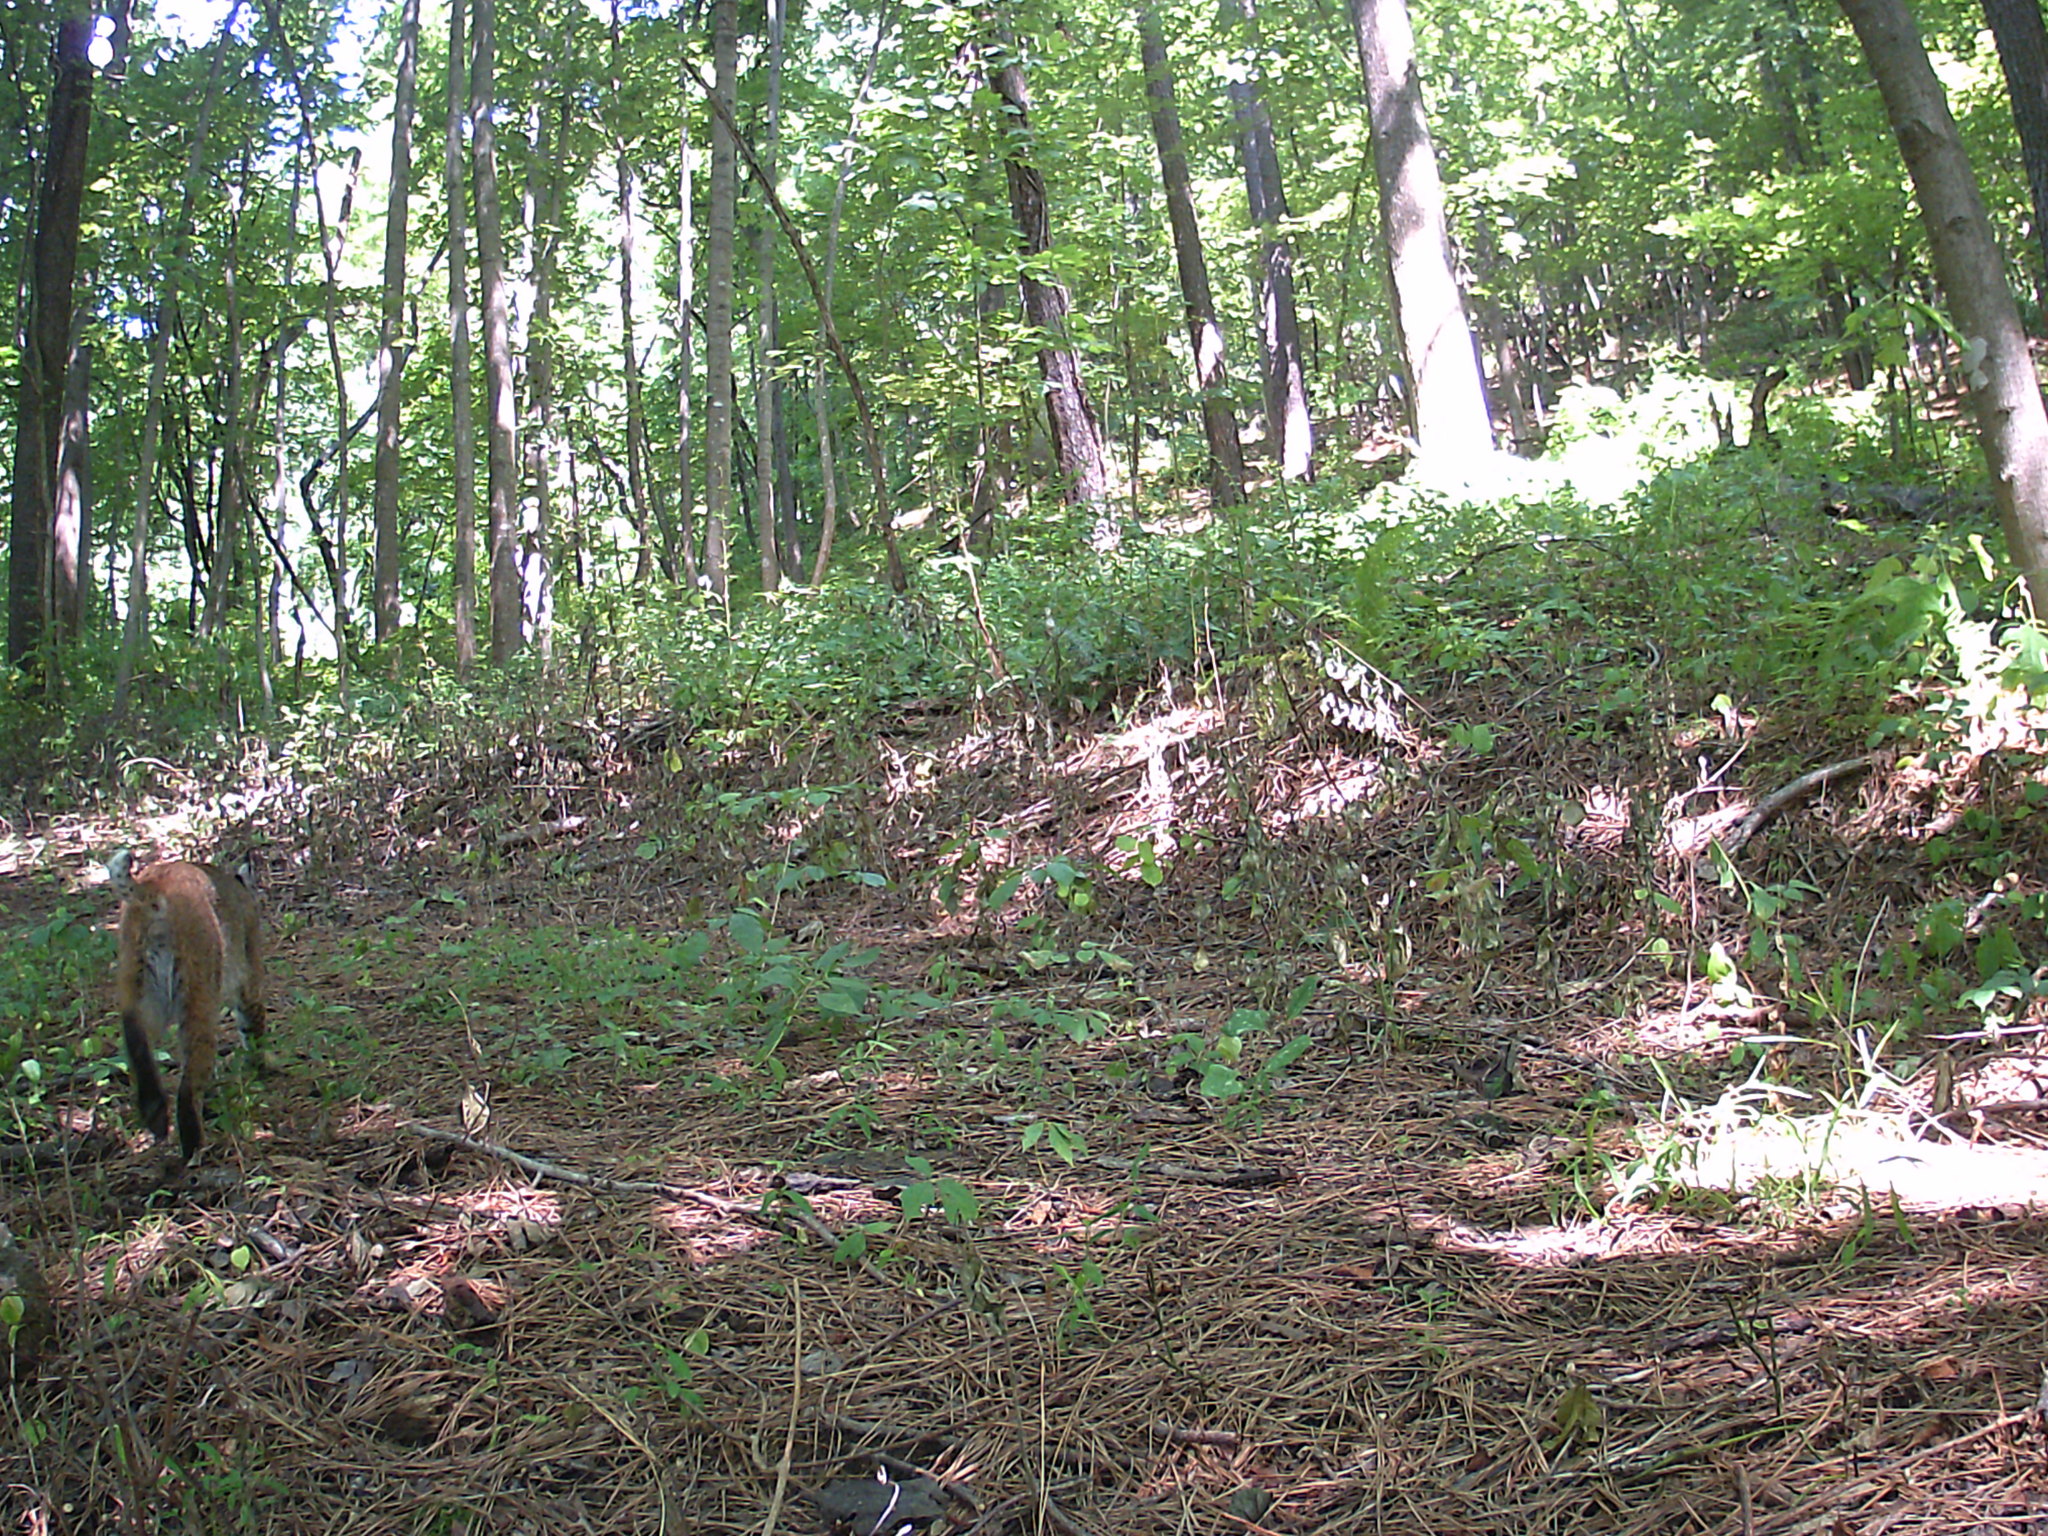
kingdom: Animalia
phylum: Chordata
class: Mammalia
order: Carnivora
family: Felidae
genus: Lynx
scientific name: Lynx rufus
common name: Bobcat
